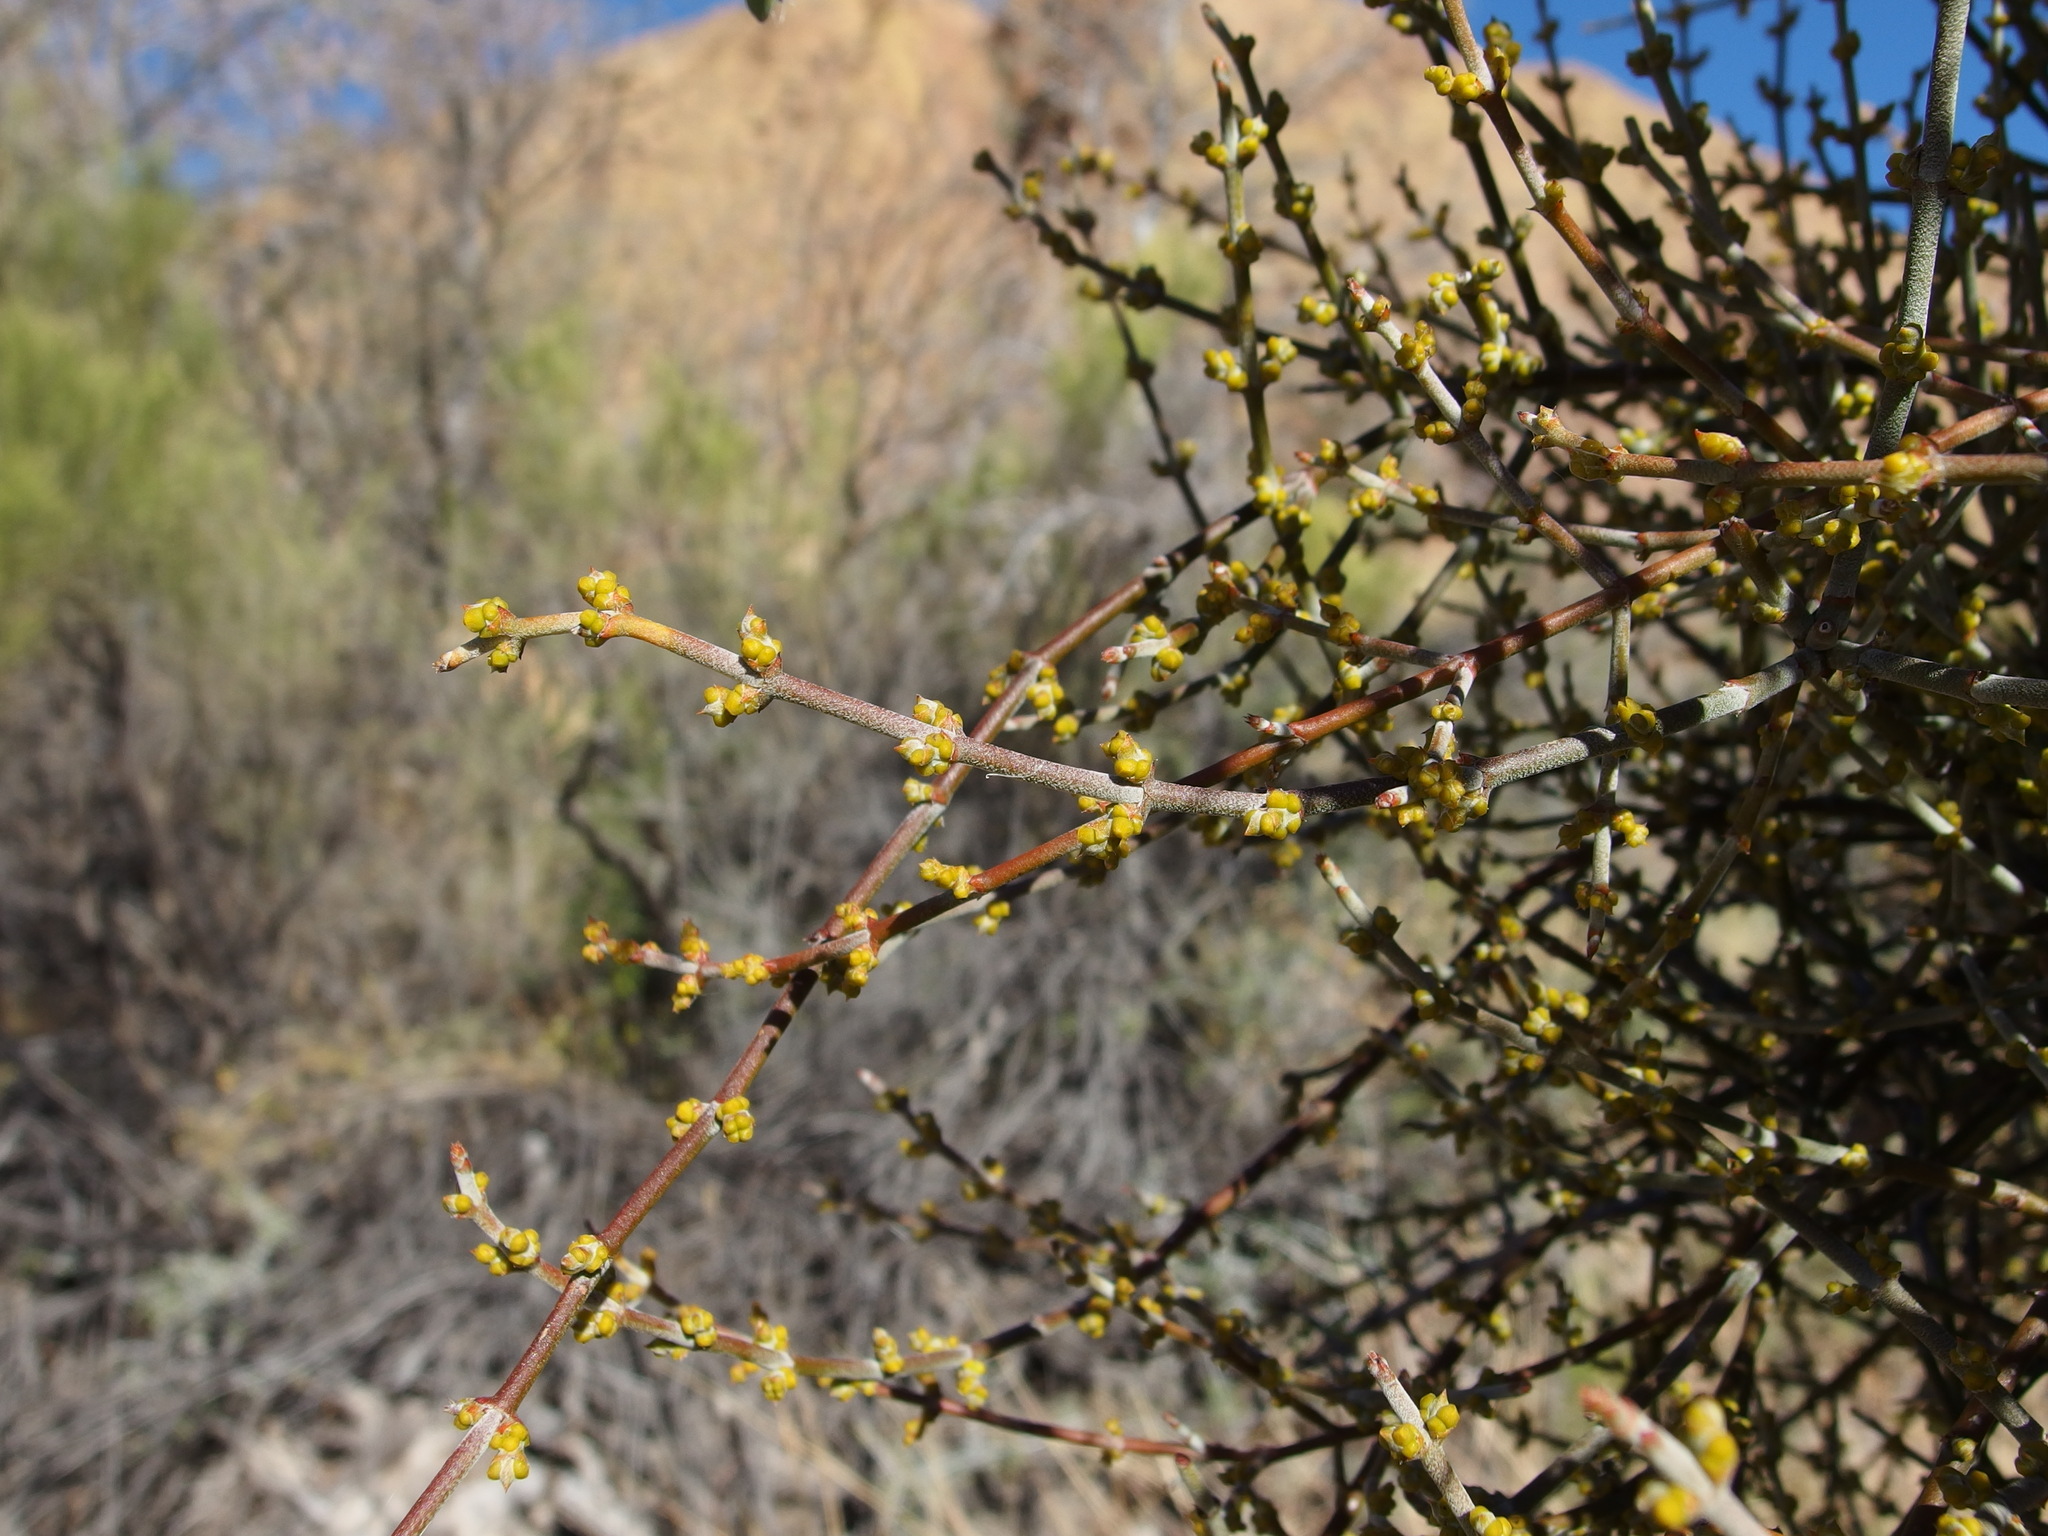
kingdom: Plantae
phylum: Tracheophyta
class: Magnoliopsida
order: Santalales
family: Viscaceae
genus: Phoradendron
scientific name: Phoradendron californicum
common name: Acacia mistletoe
